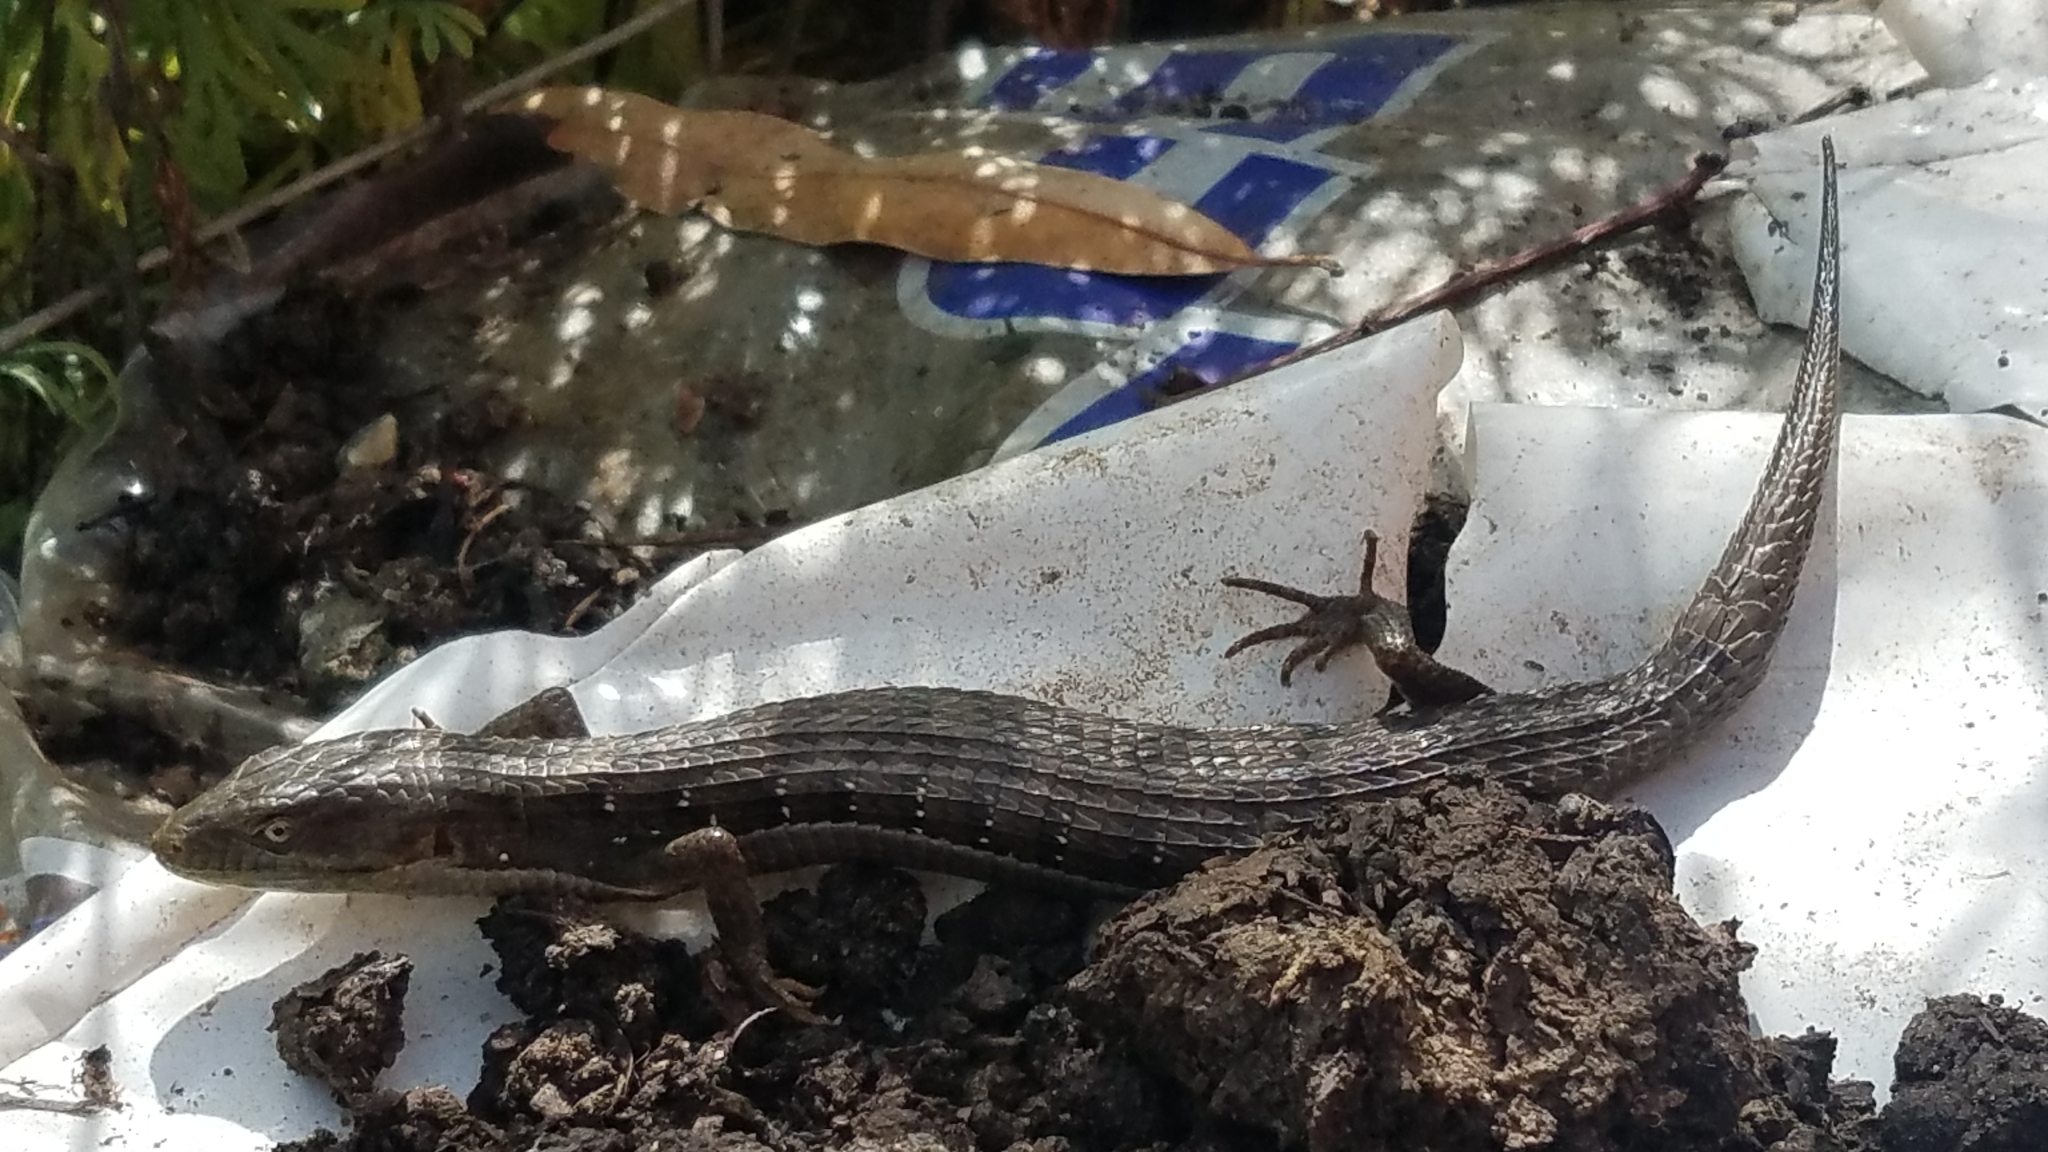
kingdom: Animalia
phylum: Chordata
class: Squamata
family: Anguidae
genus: Elgaria
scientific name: Elgaria multicarinata
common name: Southern alligator lizard
